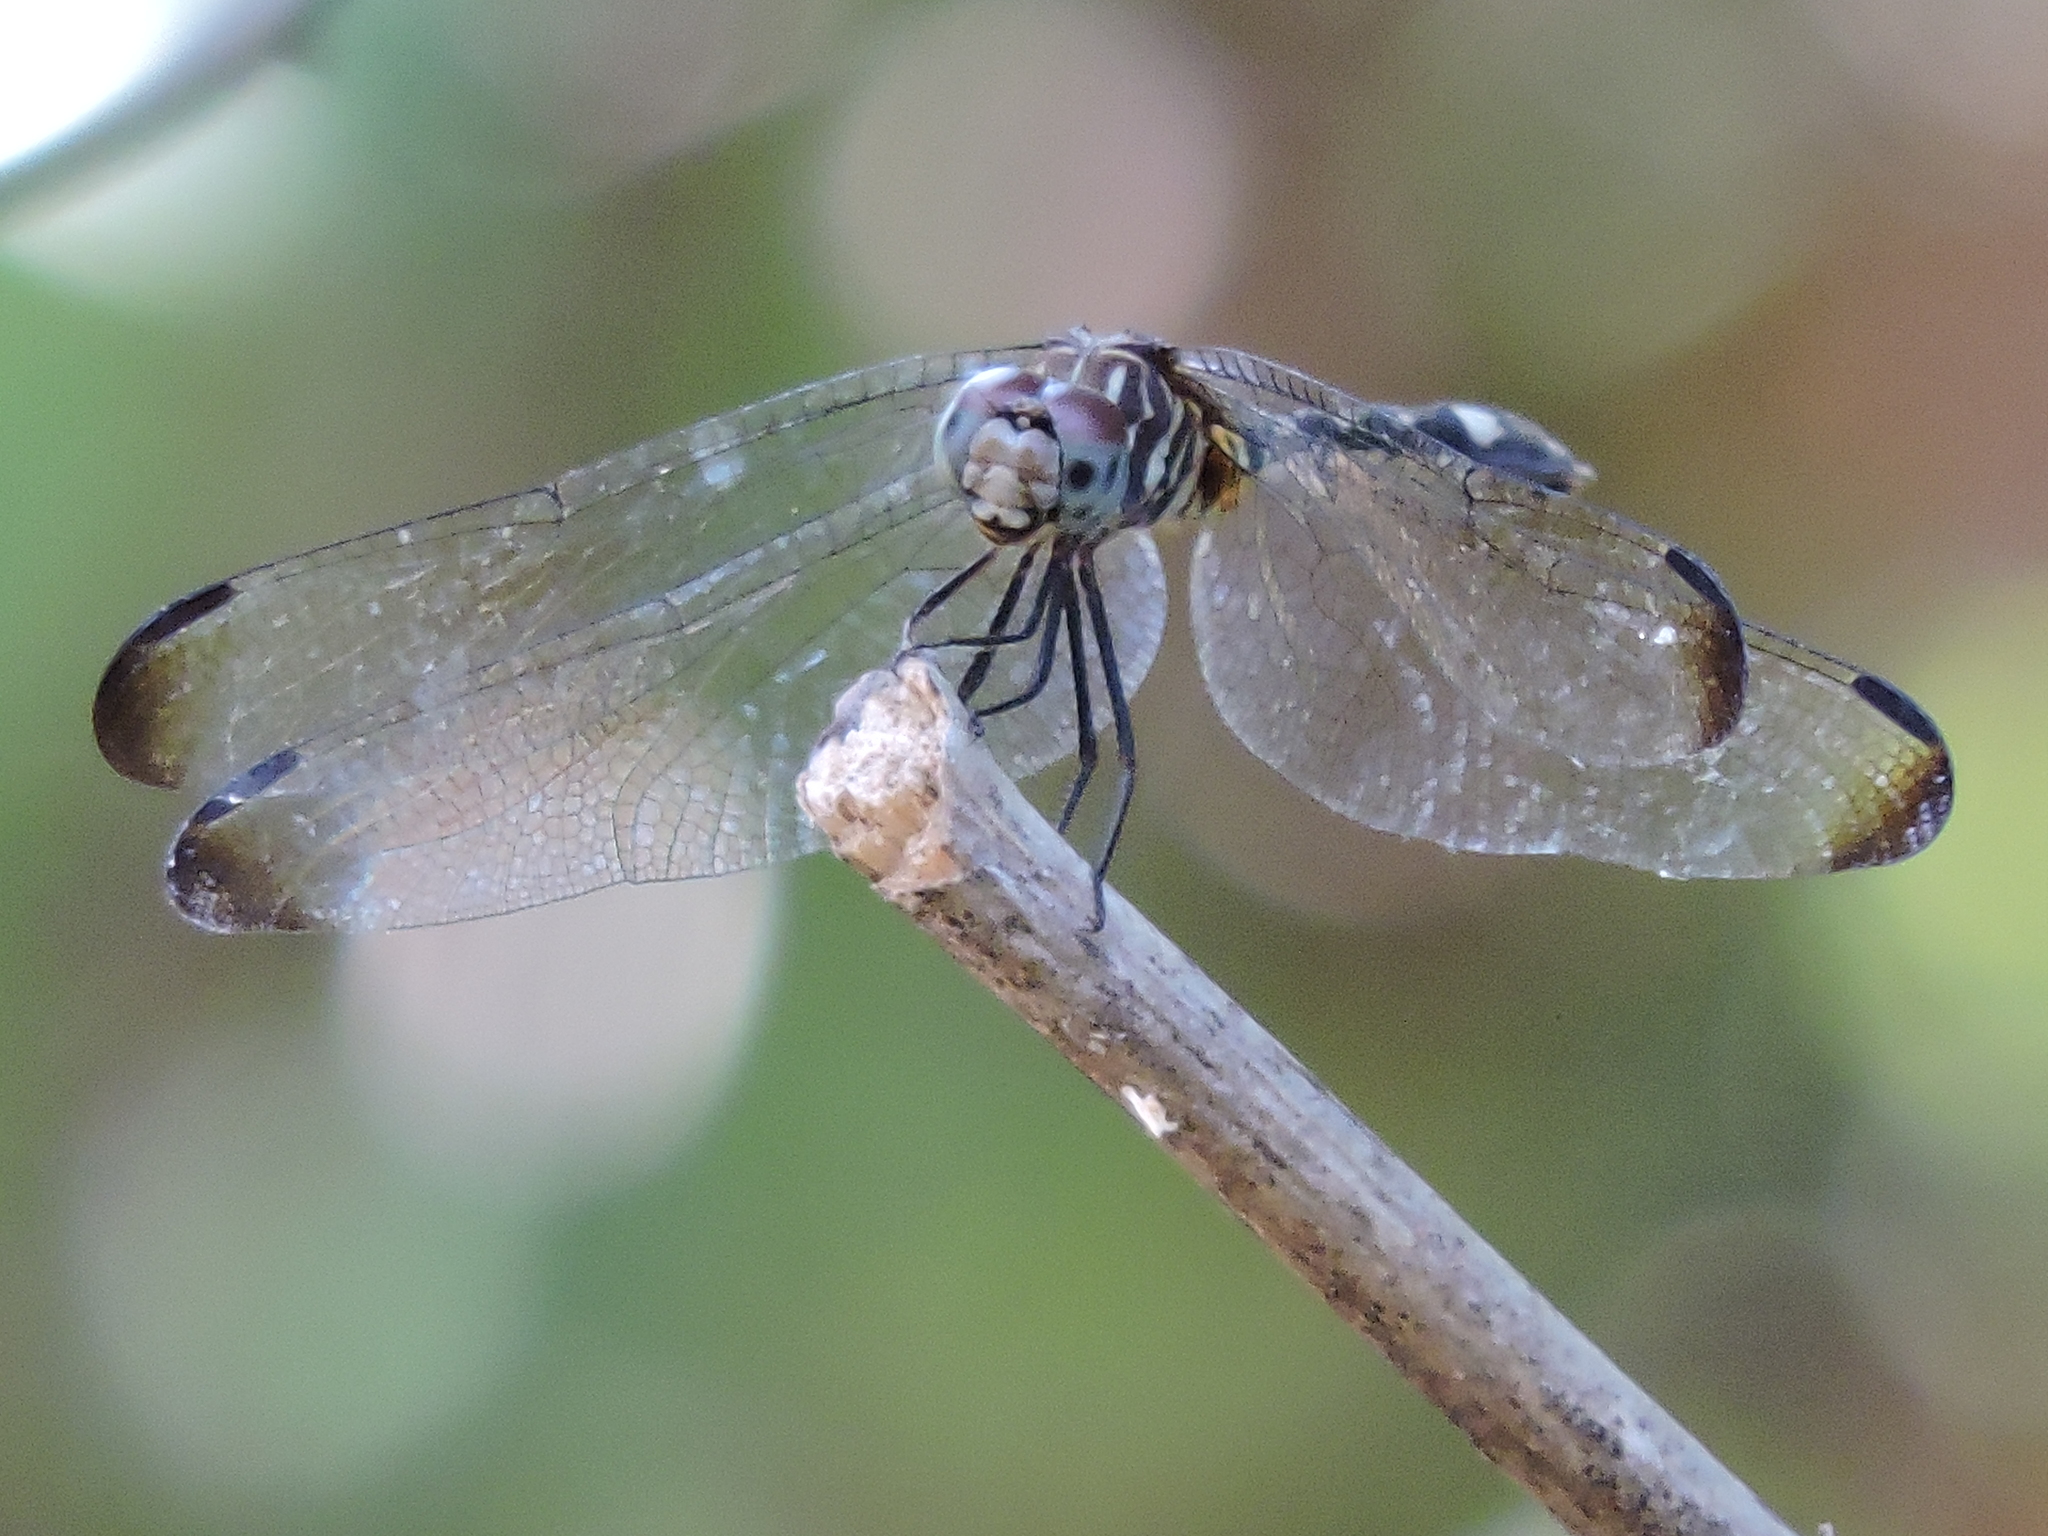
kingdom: Animalia
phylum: Arthropoda
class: Insecta
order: Odonata
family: Libellulidae
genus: Dythemis
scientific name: Dythemis velox
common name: Swift setwing
